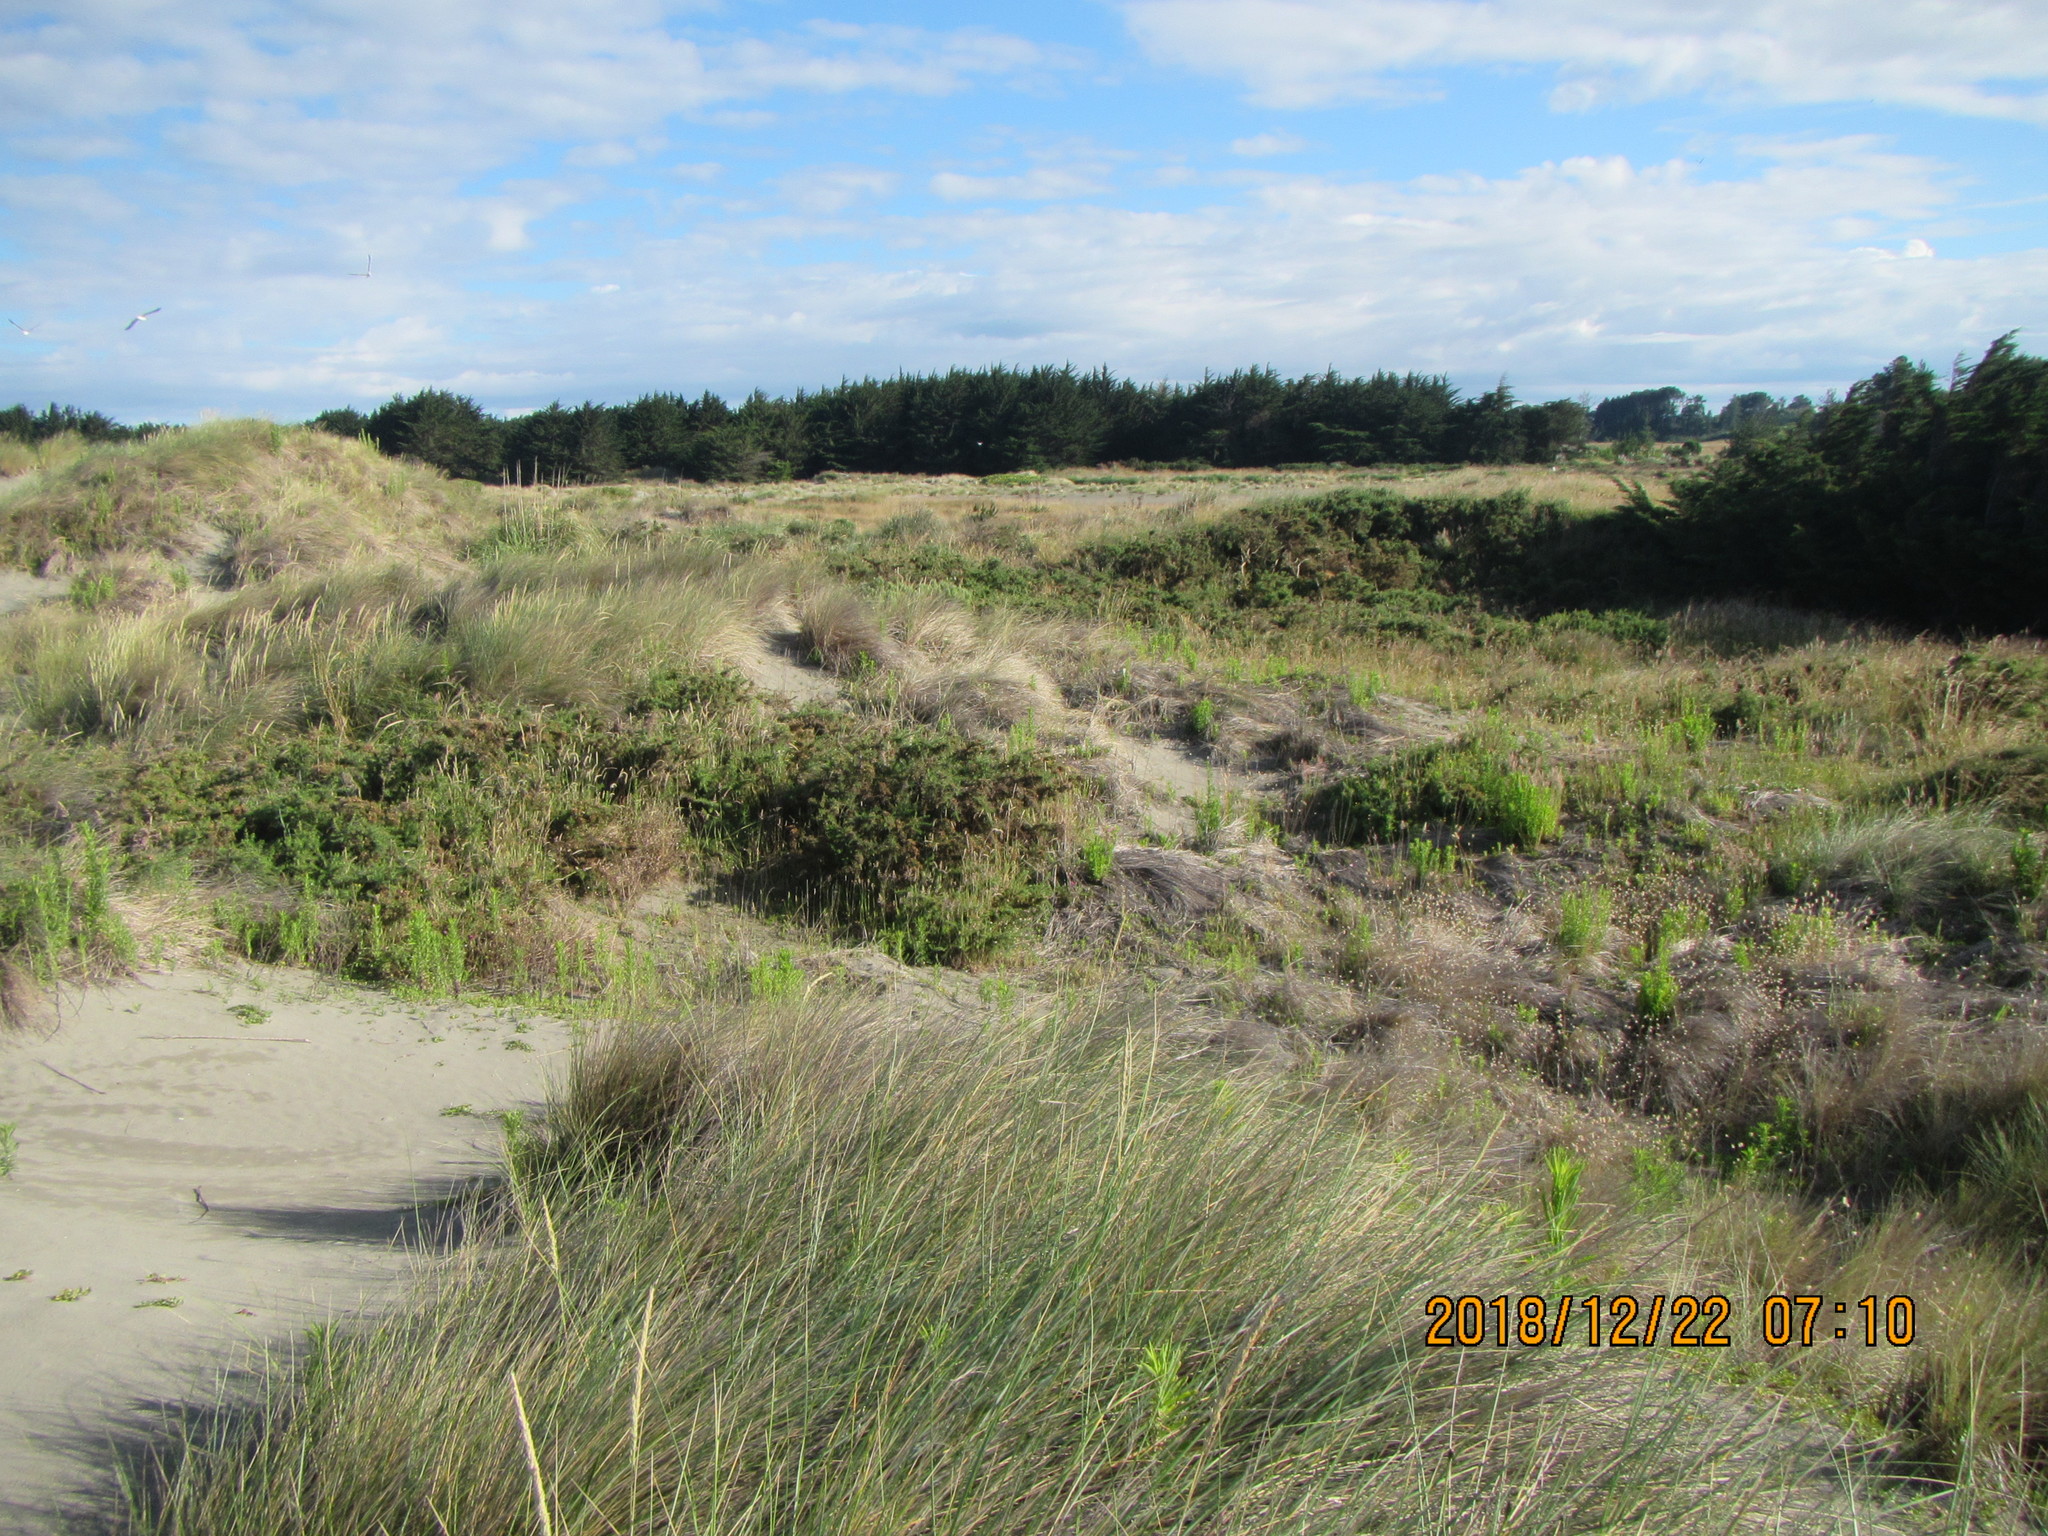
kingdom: Plantae
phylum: Tracheophyta
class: Magnoliopsida
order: Fabales
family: Fabaceae
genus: Ulex
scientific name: Ulex europaeus
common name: Common gorse
